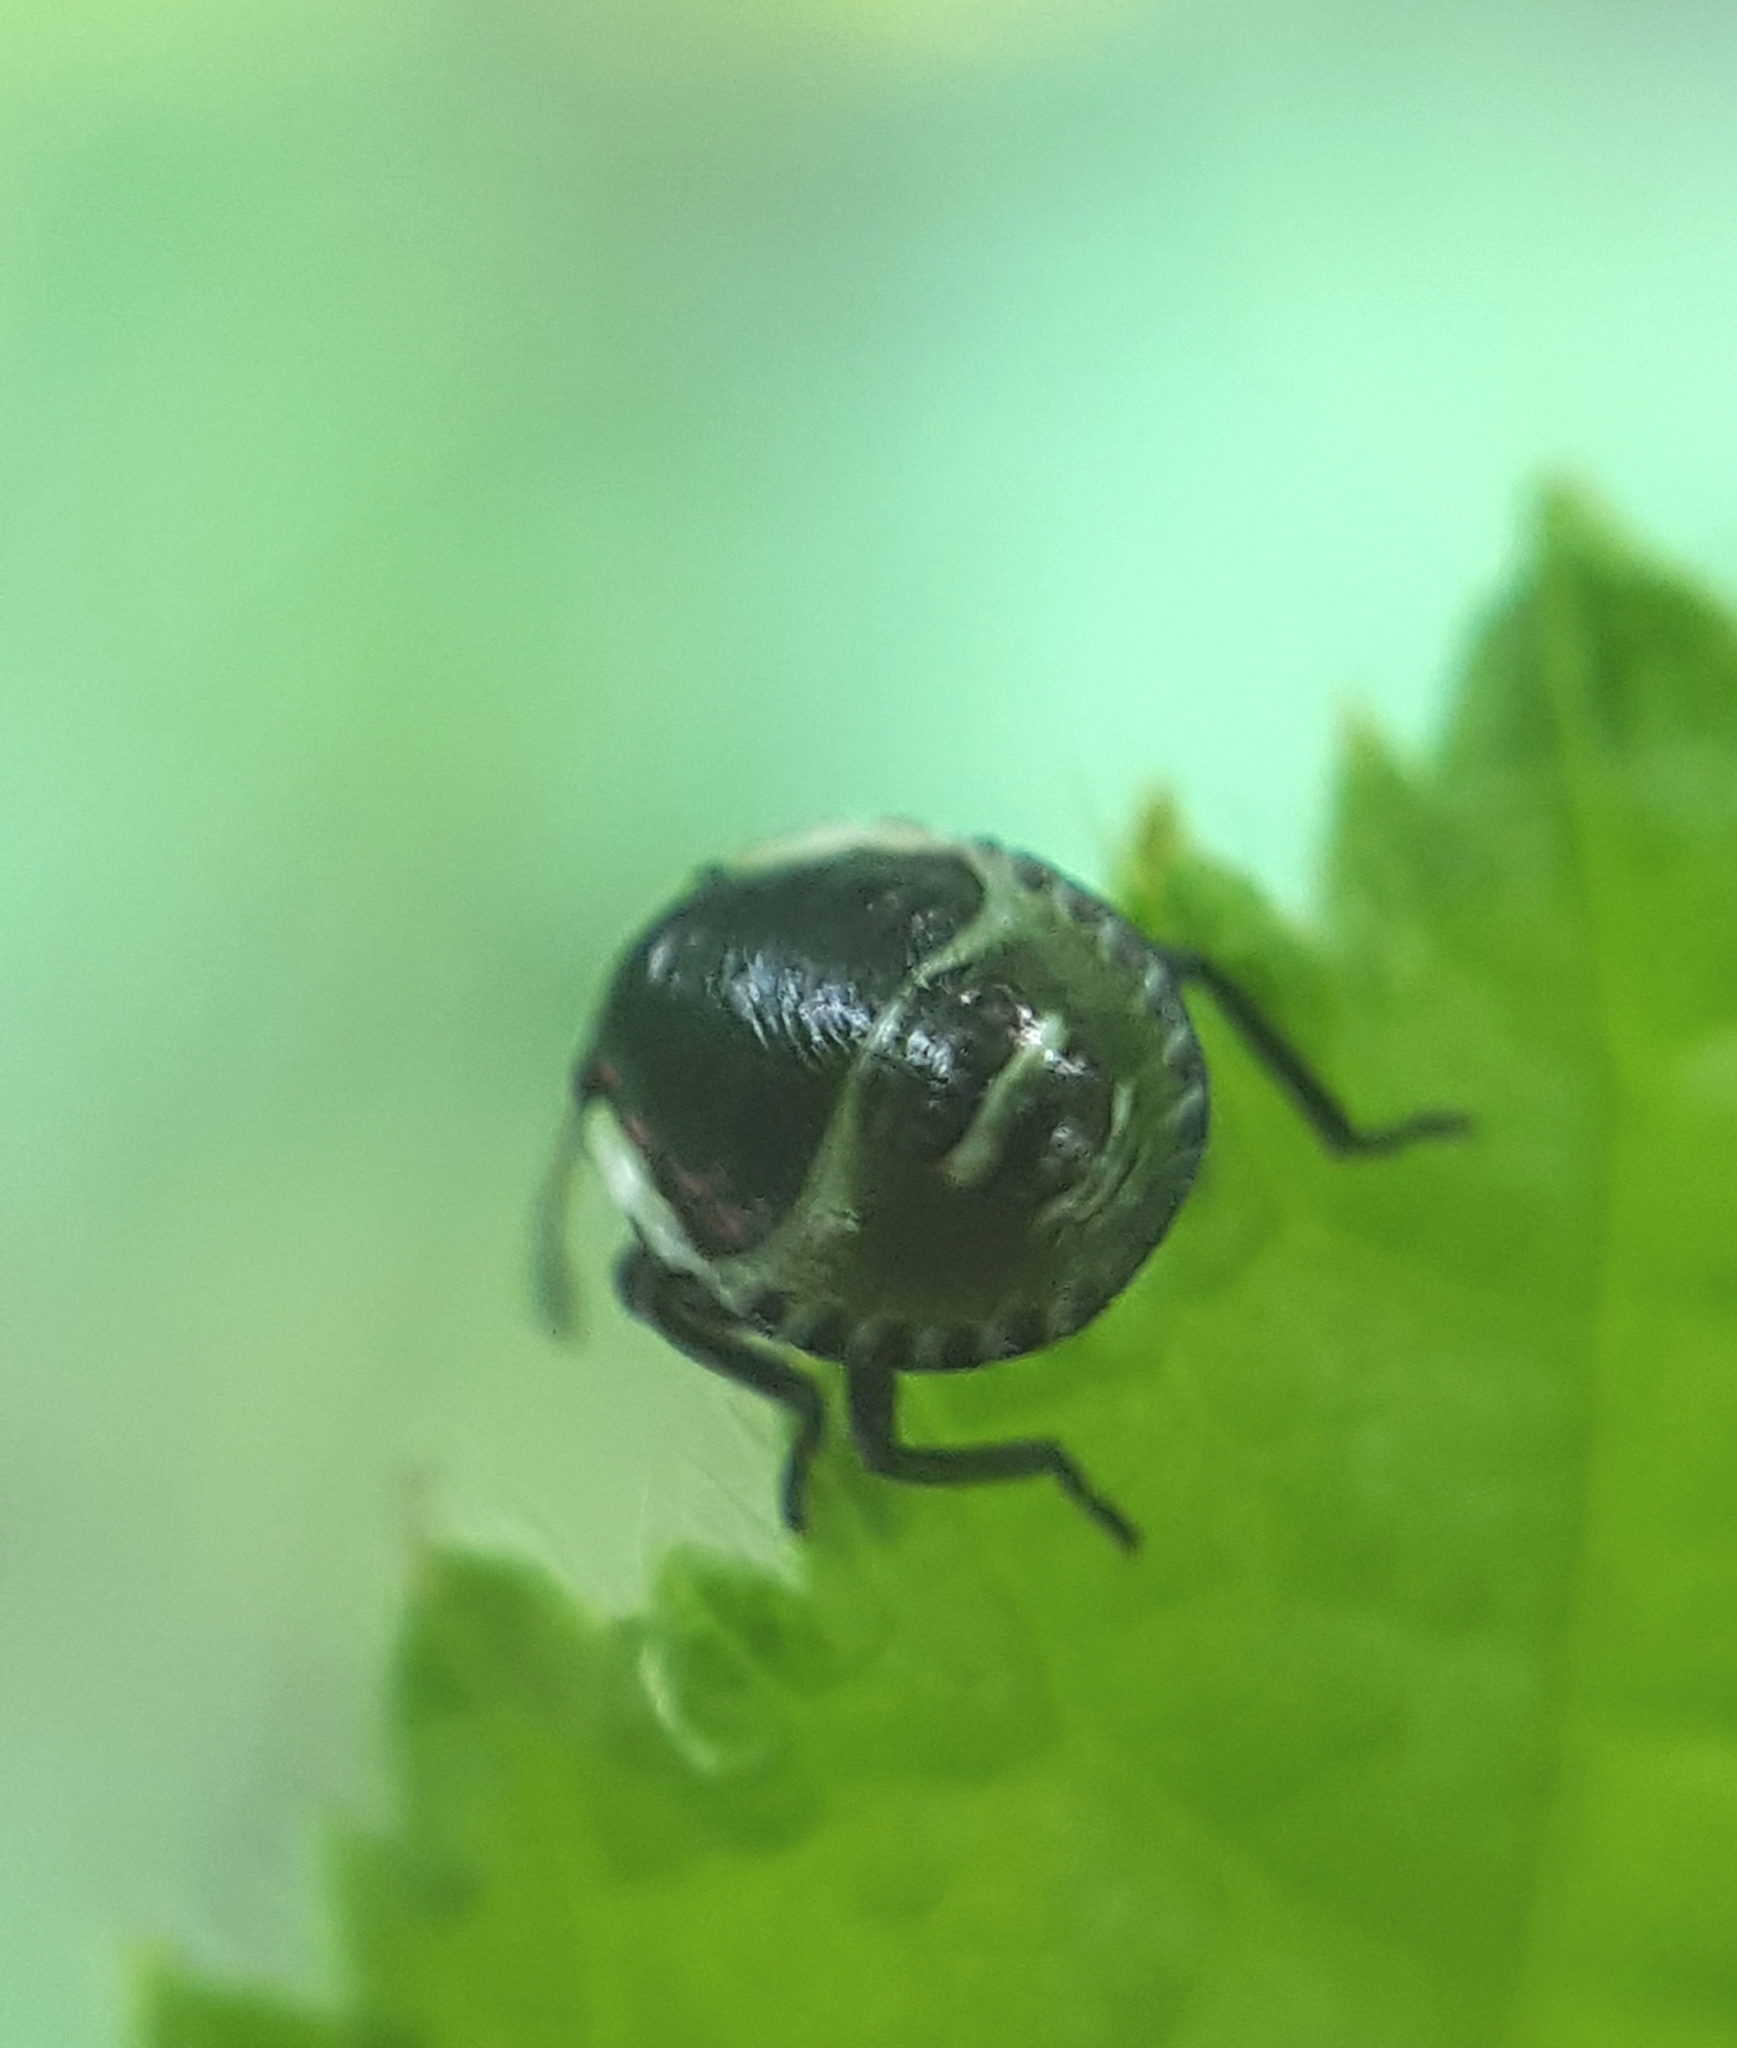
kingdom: Animalia
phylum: Arthropoda
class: Insecta
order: Hemiptera
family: Pentatomidae
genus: Palomena
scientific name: Palomena prasina
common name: Green shieldbug
